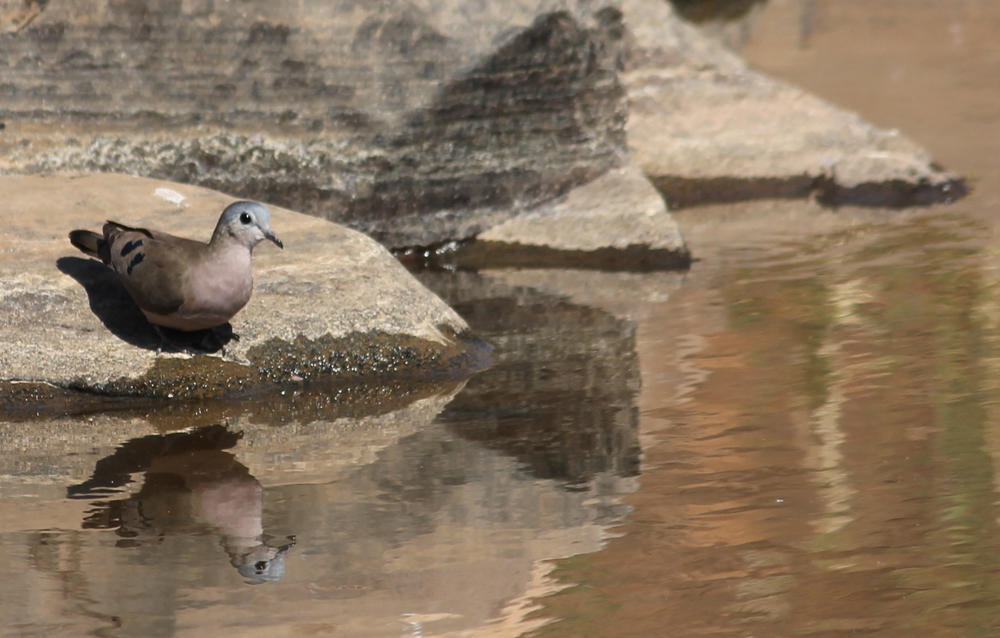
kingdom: Animalia
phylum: Chordata
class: Aves
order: Columbiformes
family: Columbidae
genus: Turtur
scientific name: Turtur chalcospilos
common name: Emerald-spotted wood dove
